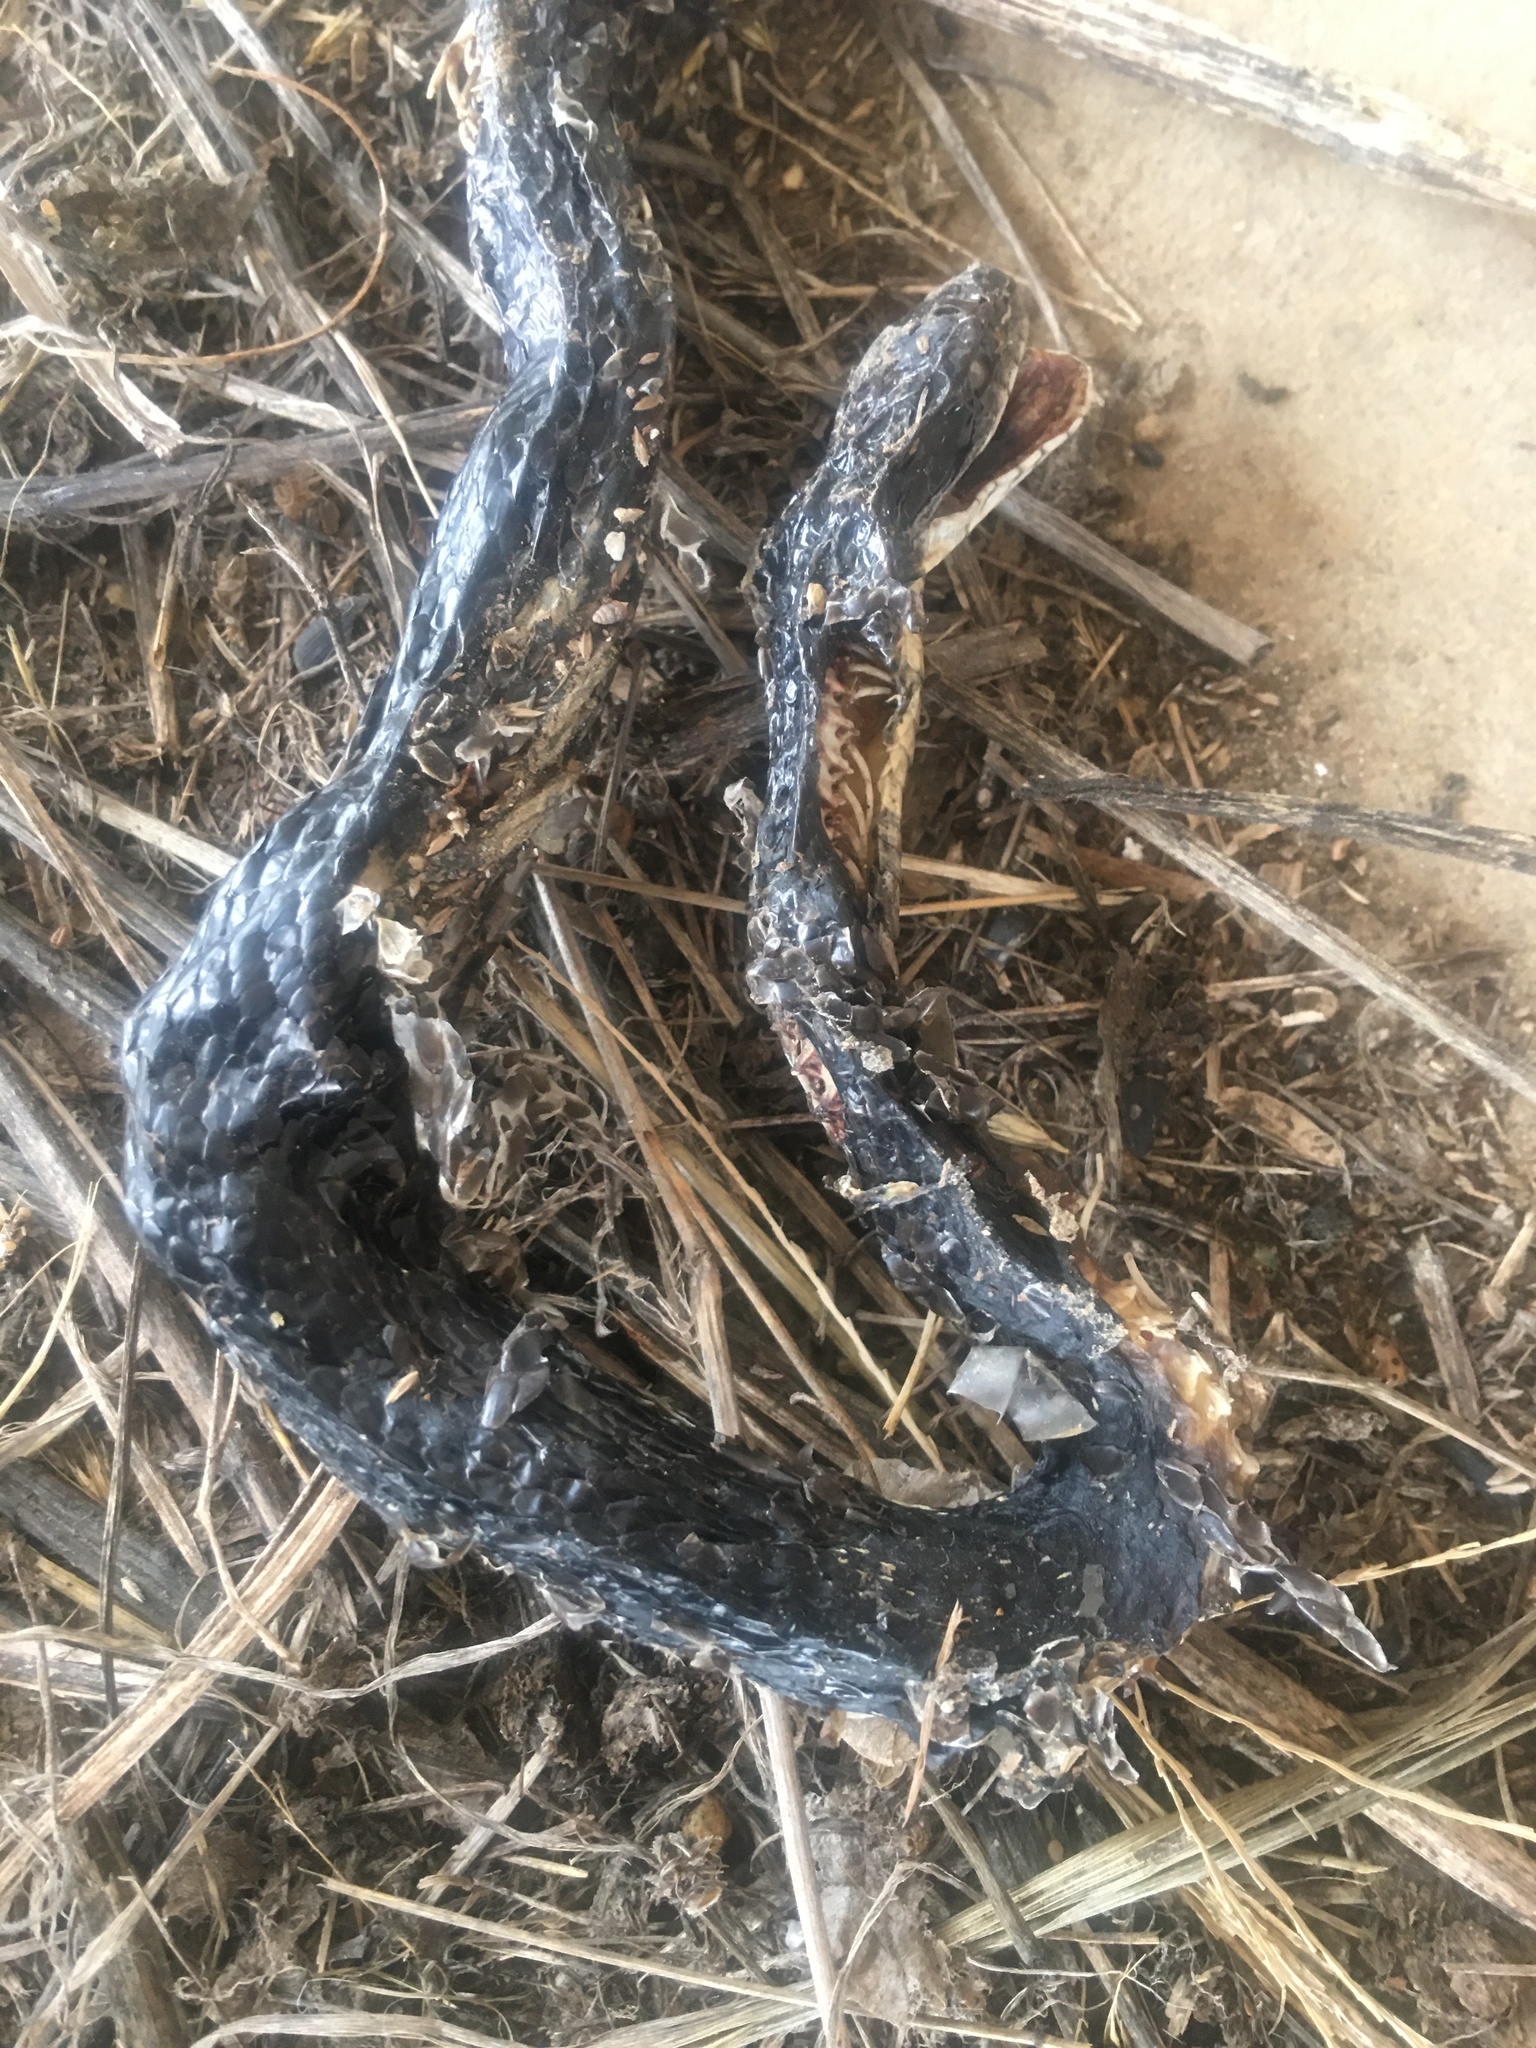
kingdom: Animalia
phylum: Chordata
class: Squamata
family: Colubridae
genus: Pantherophis
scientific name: Pantherophis obsoletus
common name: Black rat snake
